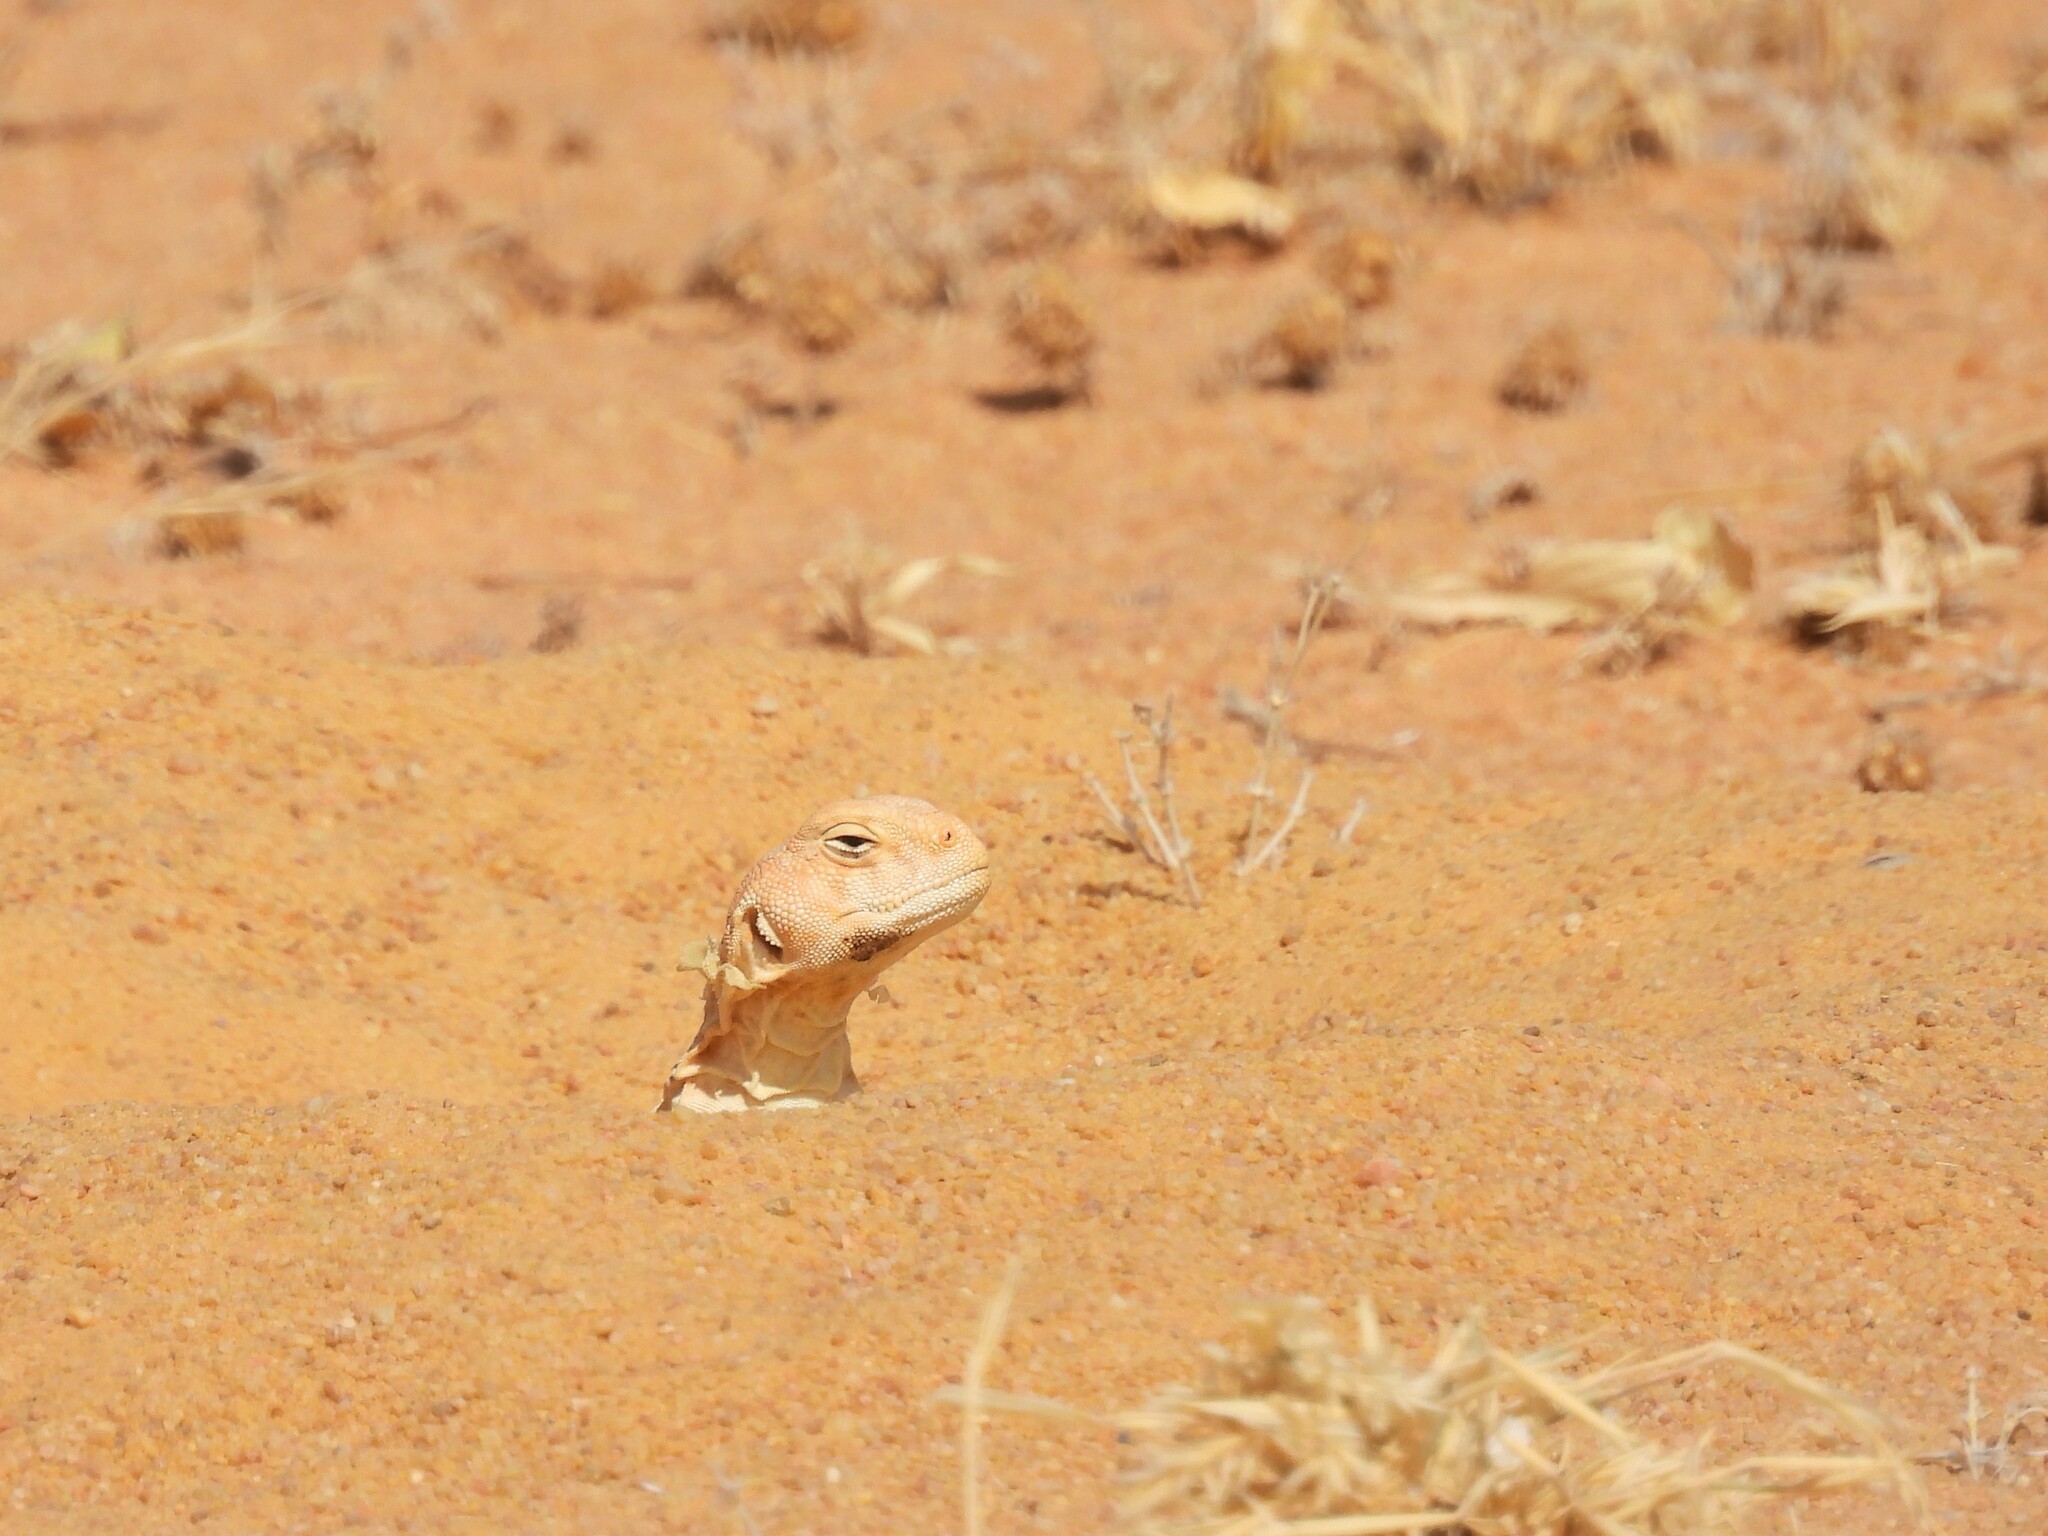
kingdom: Animalia
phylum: Chordata
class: Squamata
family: Agamidae
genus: Uromastyx
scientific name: Uromastyx aegyptia
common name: Egyptian mastigure
